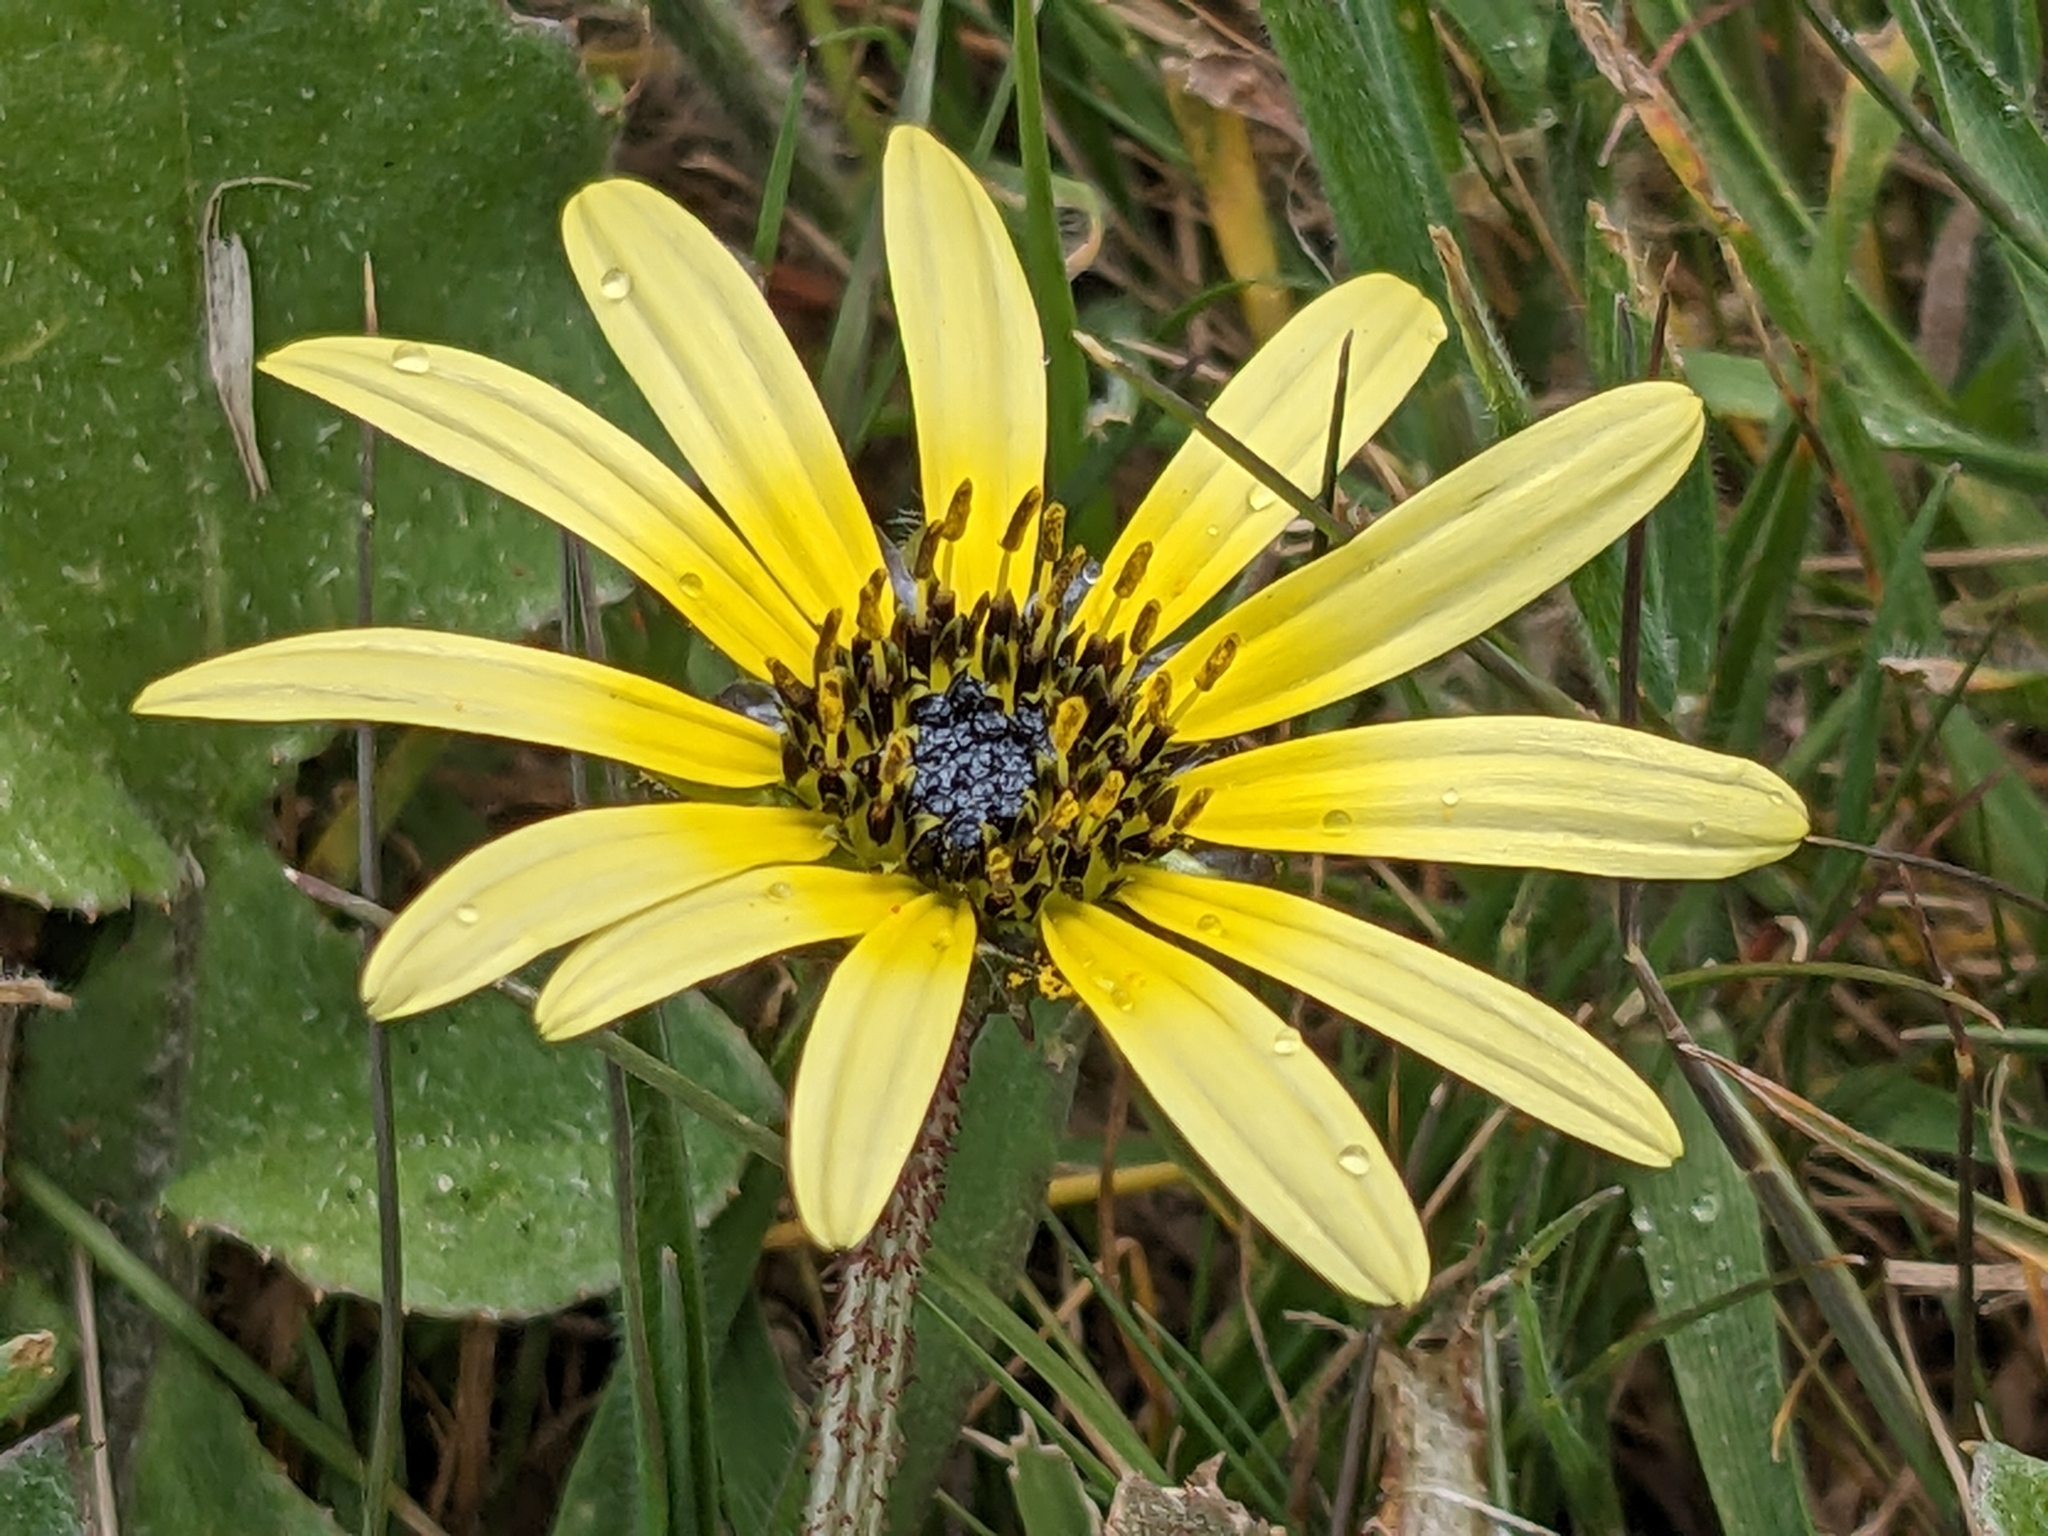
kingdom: Plantae
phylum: Tracheophyta
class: Magnoliopsida
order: Asterales
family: Asteraceae
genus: Arctotheca
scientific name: Arctotheca calendula
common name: Capeweed
